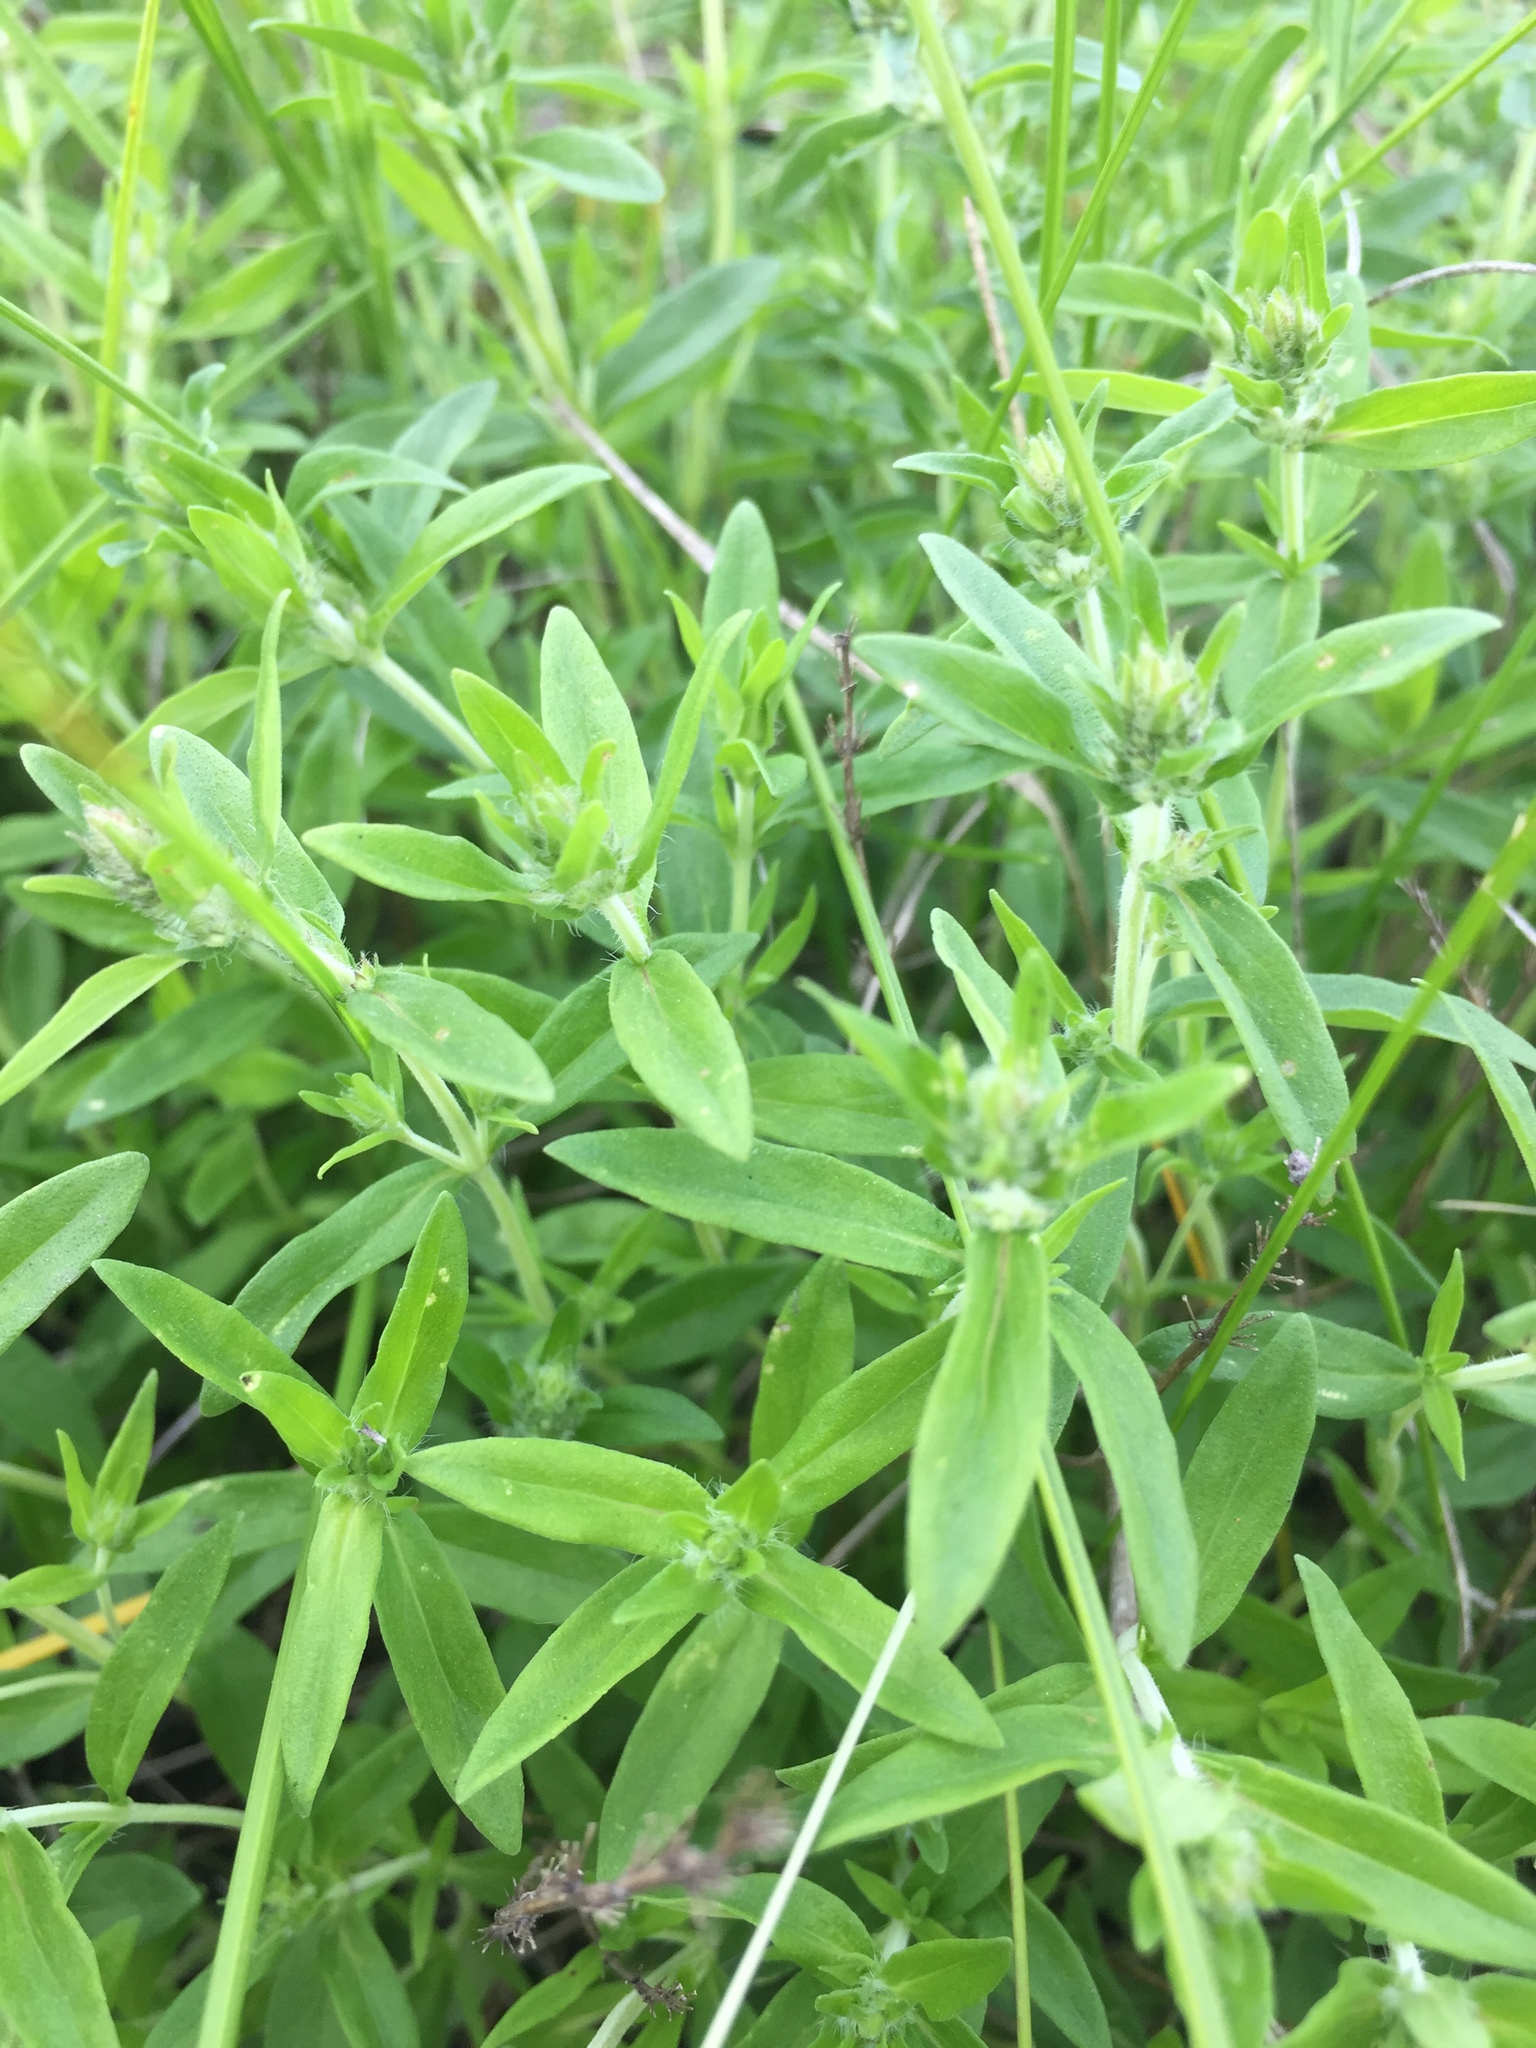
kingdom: Plantae
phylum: Tracheophyta
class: Magnoliopsida
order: Lamiales
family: Lamiaceae
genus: Thymus
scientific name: Thymus pannonicus
